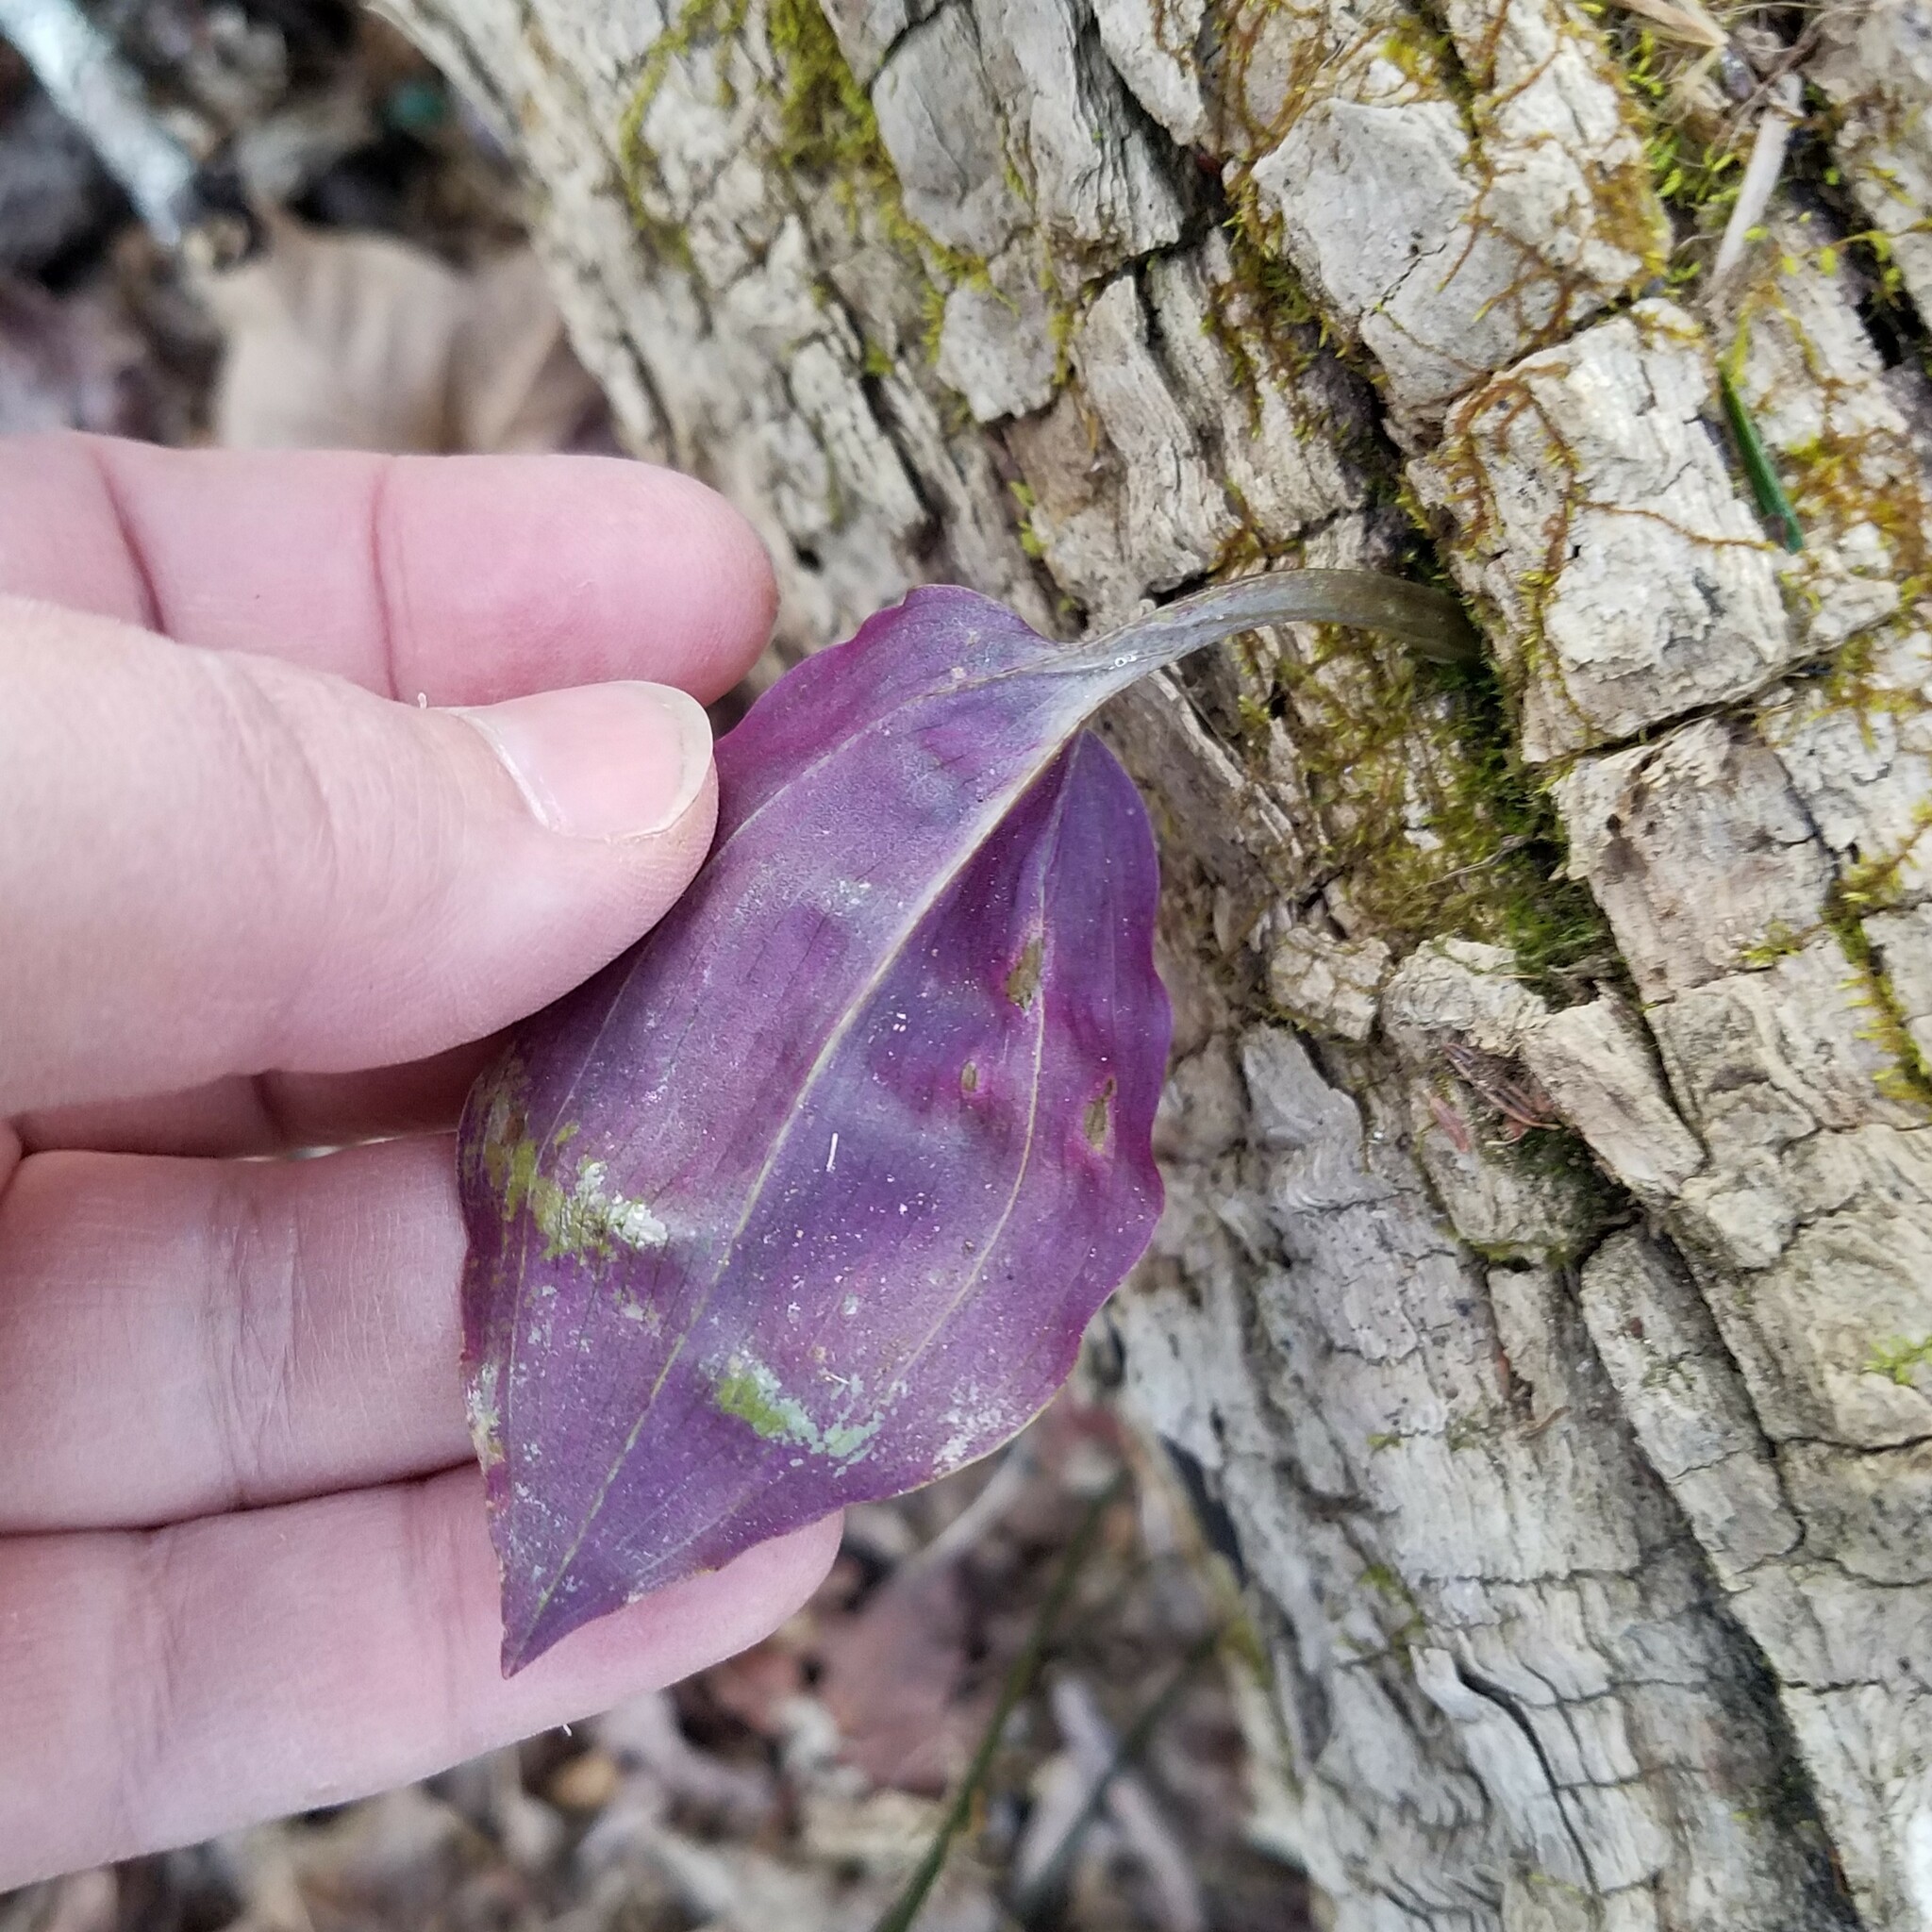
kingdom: Plantae
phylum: Tracheophyta
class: Liliopsida
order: Asparagales
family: Orchidaceae
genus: Tipularia
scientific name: Tipularia discolor
